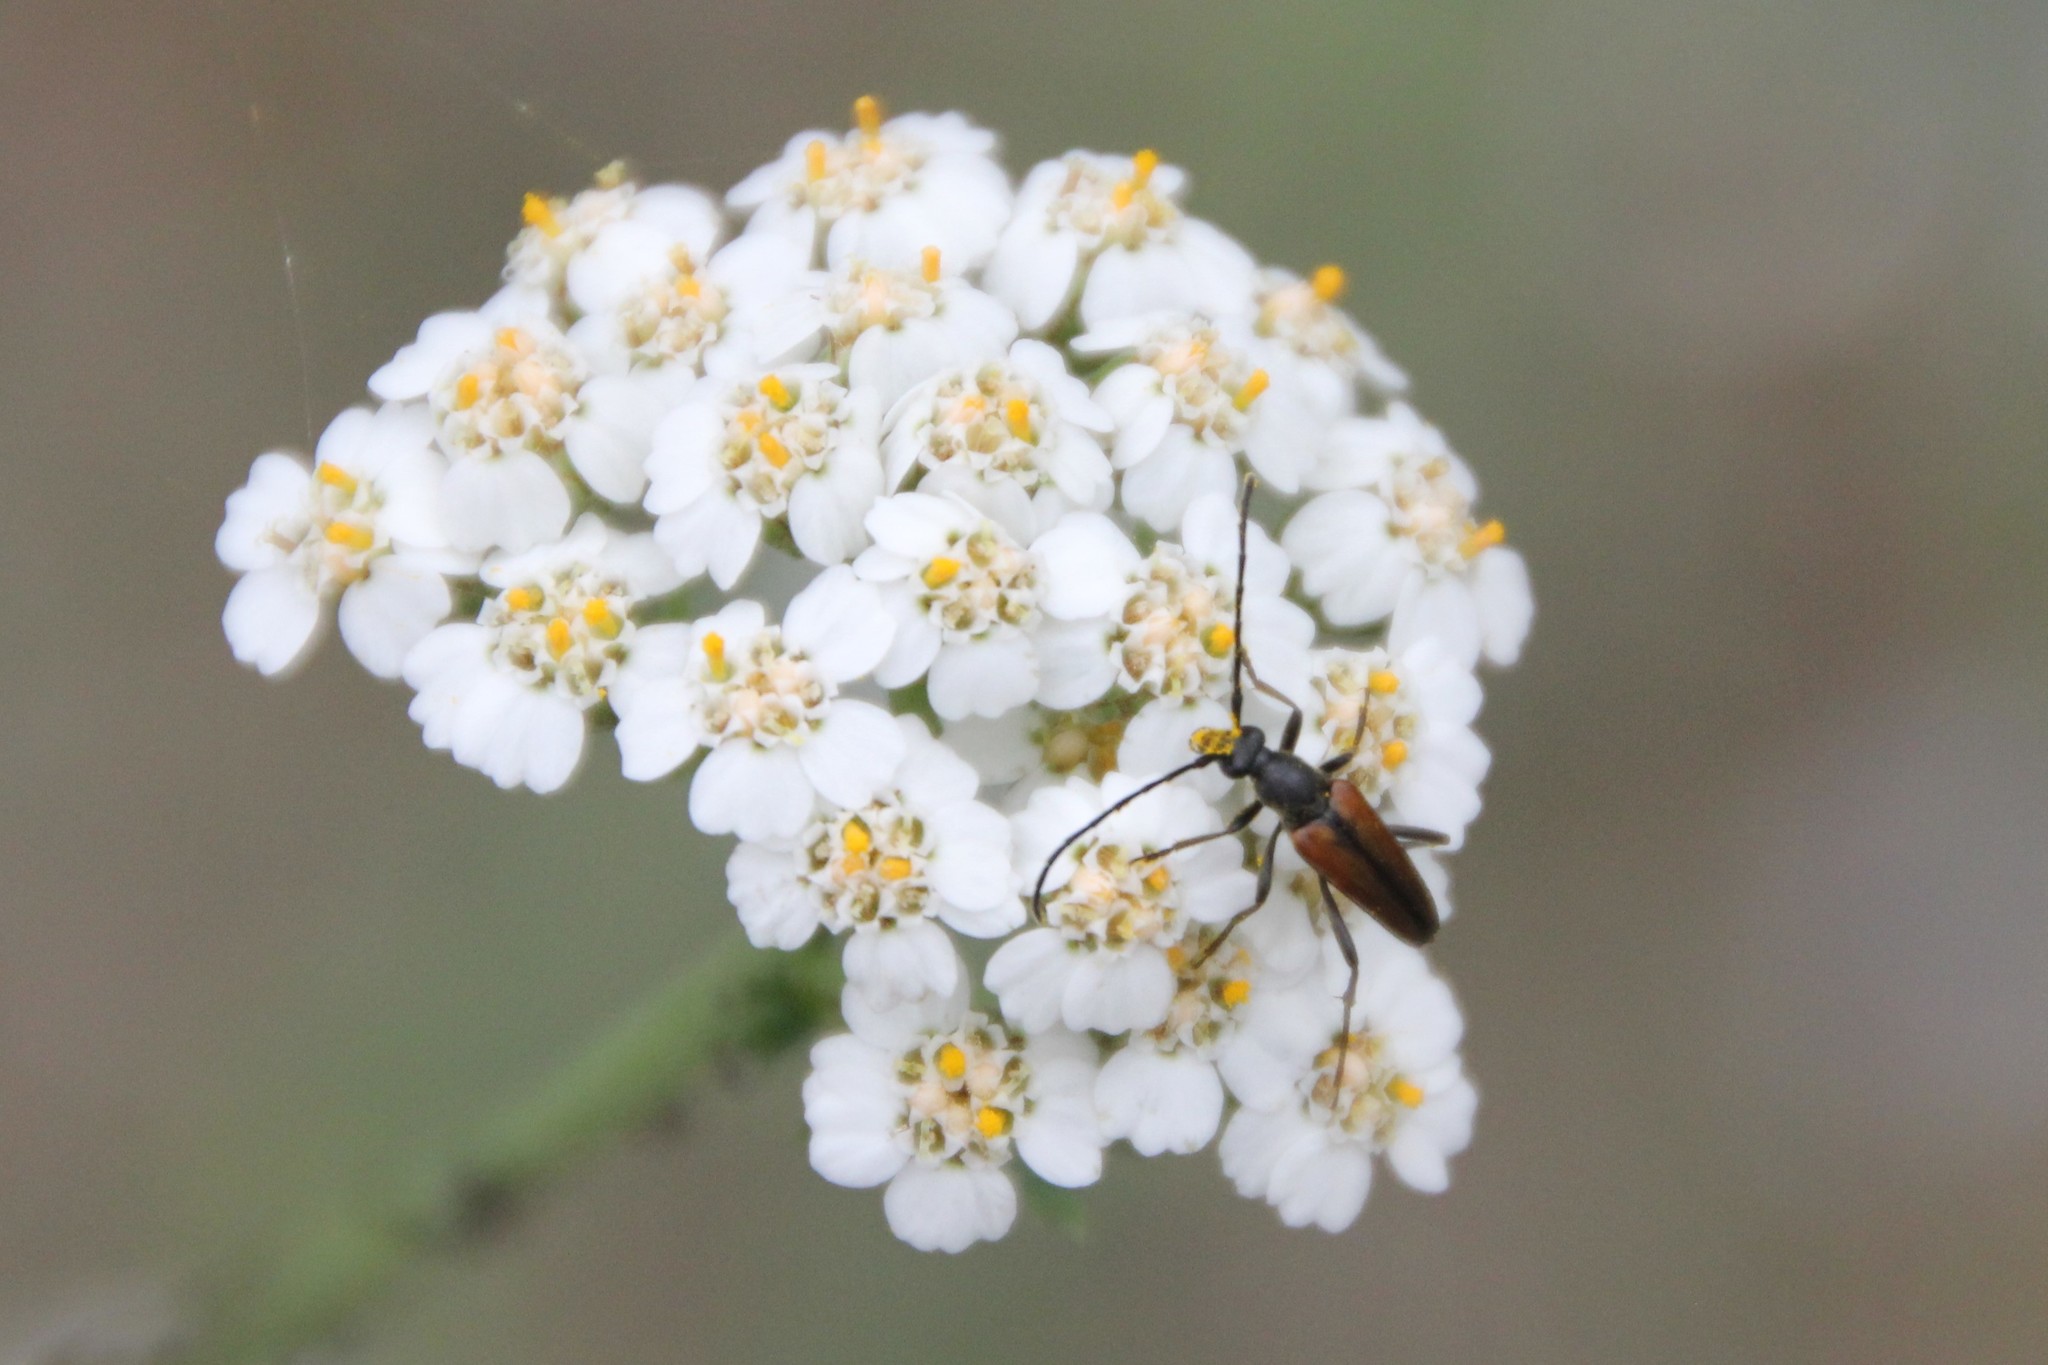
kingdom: Animalia
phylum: Arthropoda
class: Insecta
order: Coleoptera
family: Cerambycidae
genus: Stenurella
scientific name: Stenurella melanura
